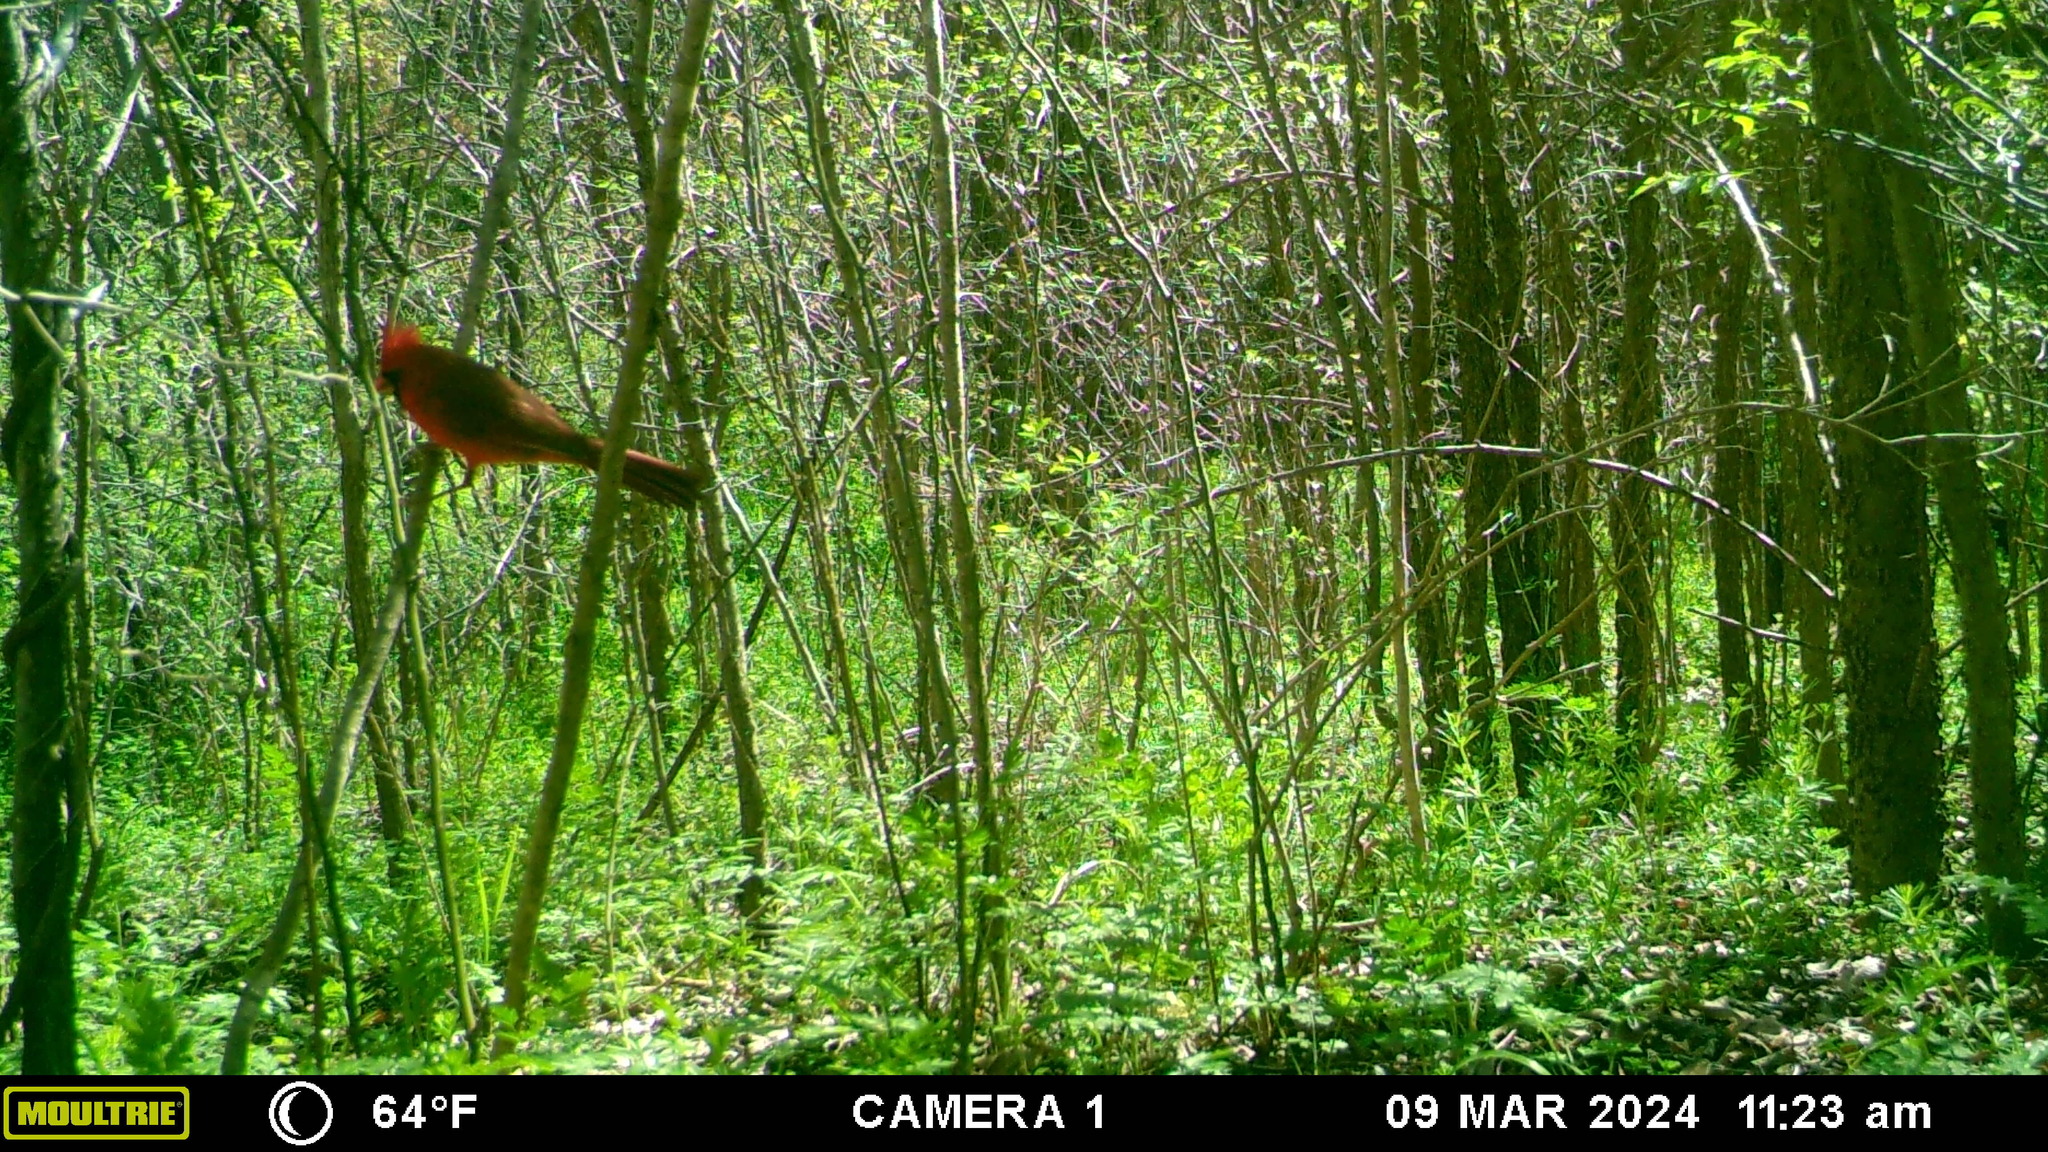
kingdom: Animalia
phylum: Chordata
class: Aves
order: Passeriformes
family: Cardinalidae
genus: Cardinalis
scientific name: Cardinalis cardinalis
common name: Northern cardinal
